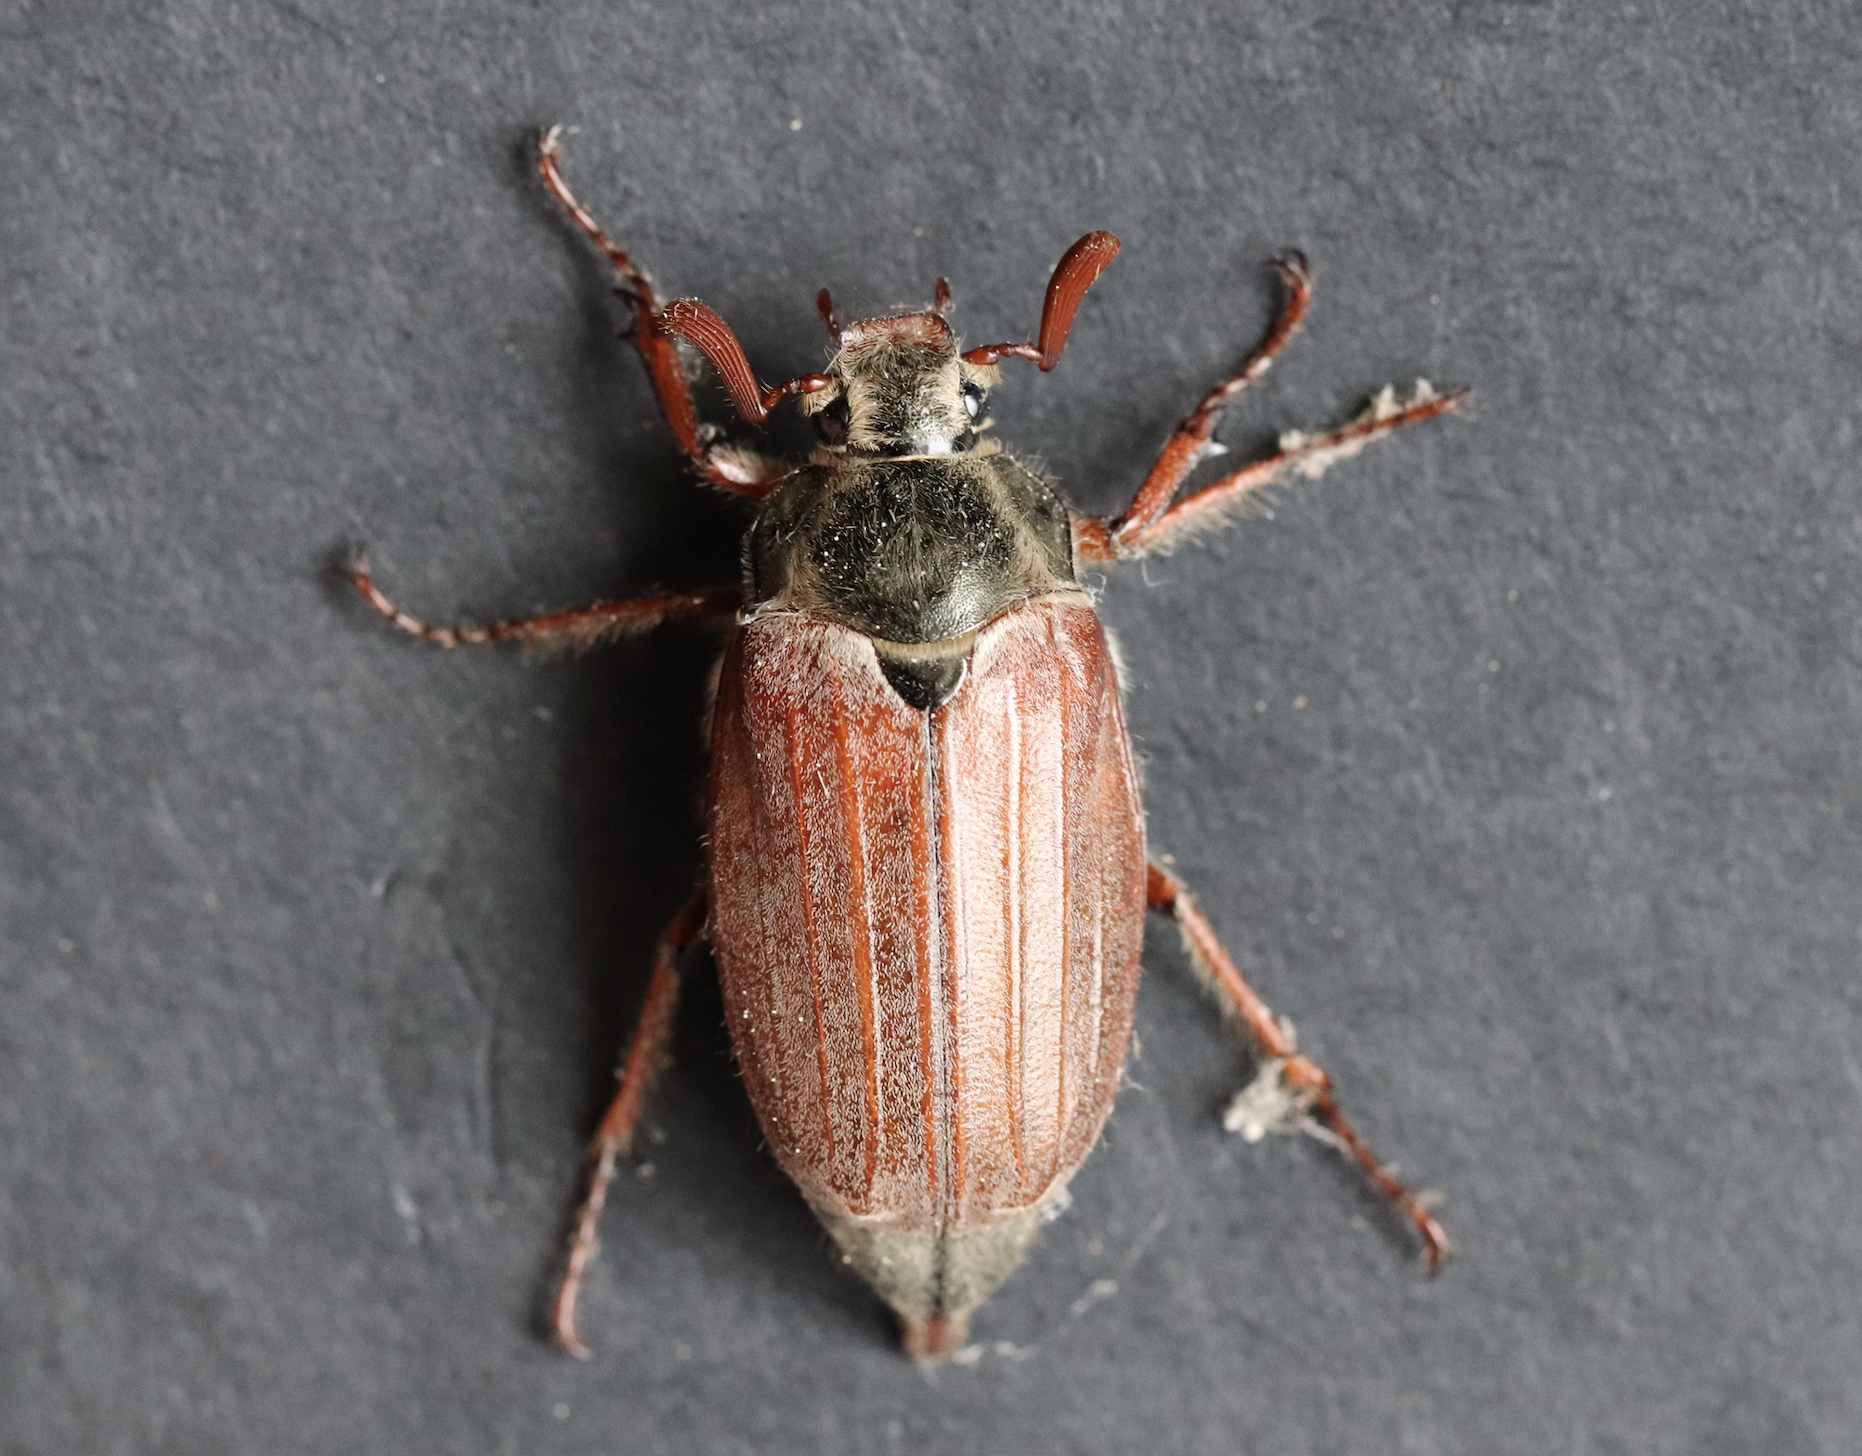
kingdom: Animalia
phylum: Arthropoda
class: Insecta
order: Coleoptera
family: Scarabaeidae
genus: Melolontha
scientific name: Melolontha melolontha
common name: Cockchafer maybeetle
